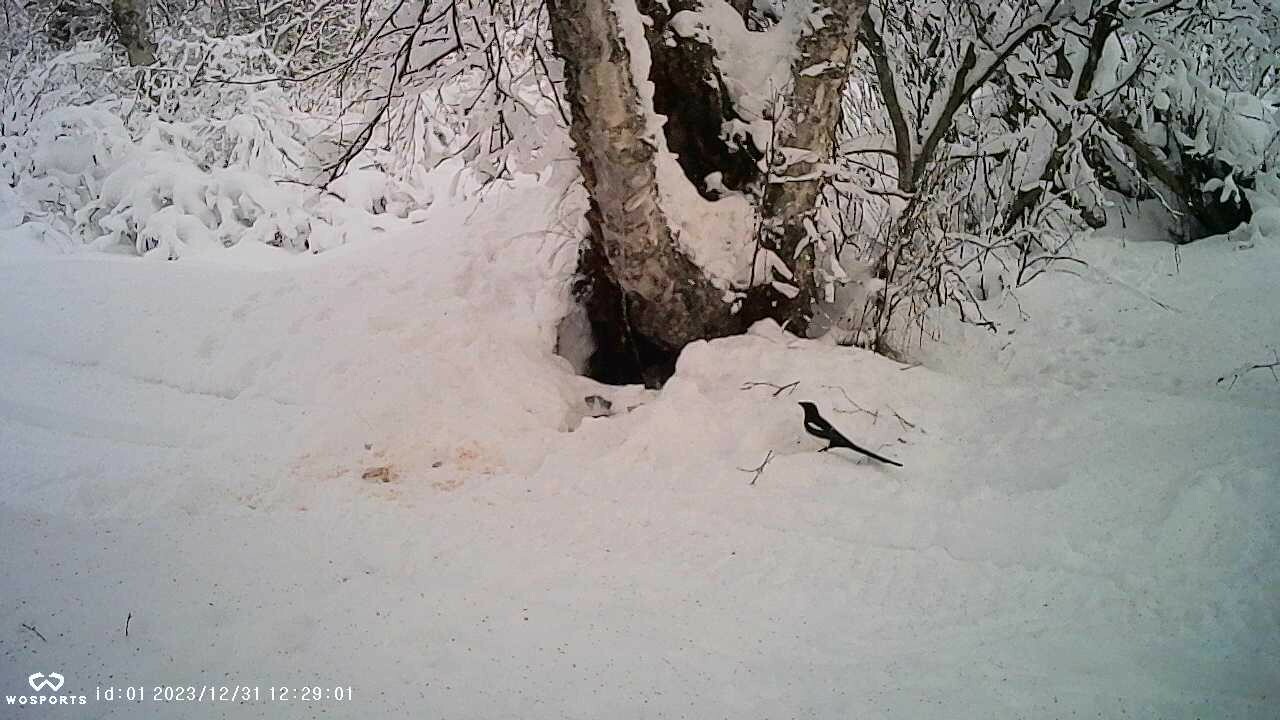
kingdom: Animalia
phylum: Chordata
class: Aves
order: Passeriformes
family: Corvidae
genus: Pica
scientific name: Pica hudsonia
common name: Black-billed magpie
